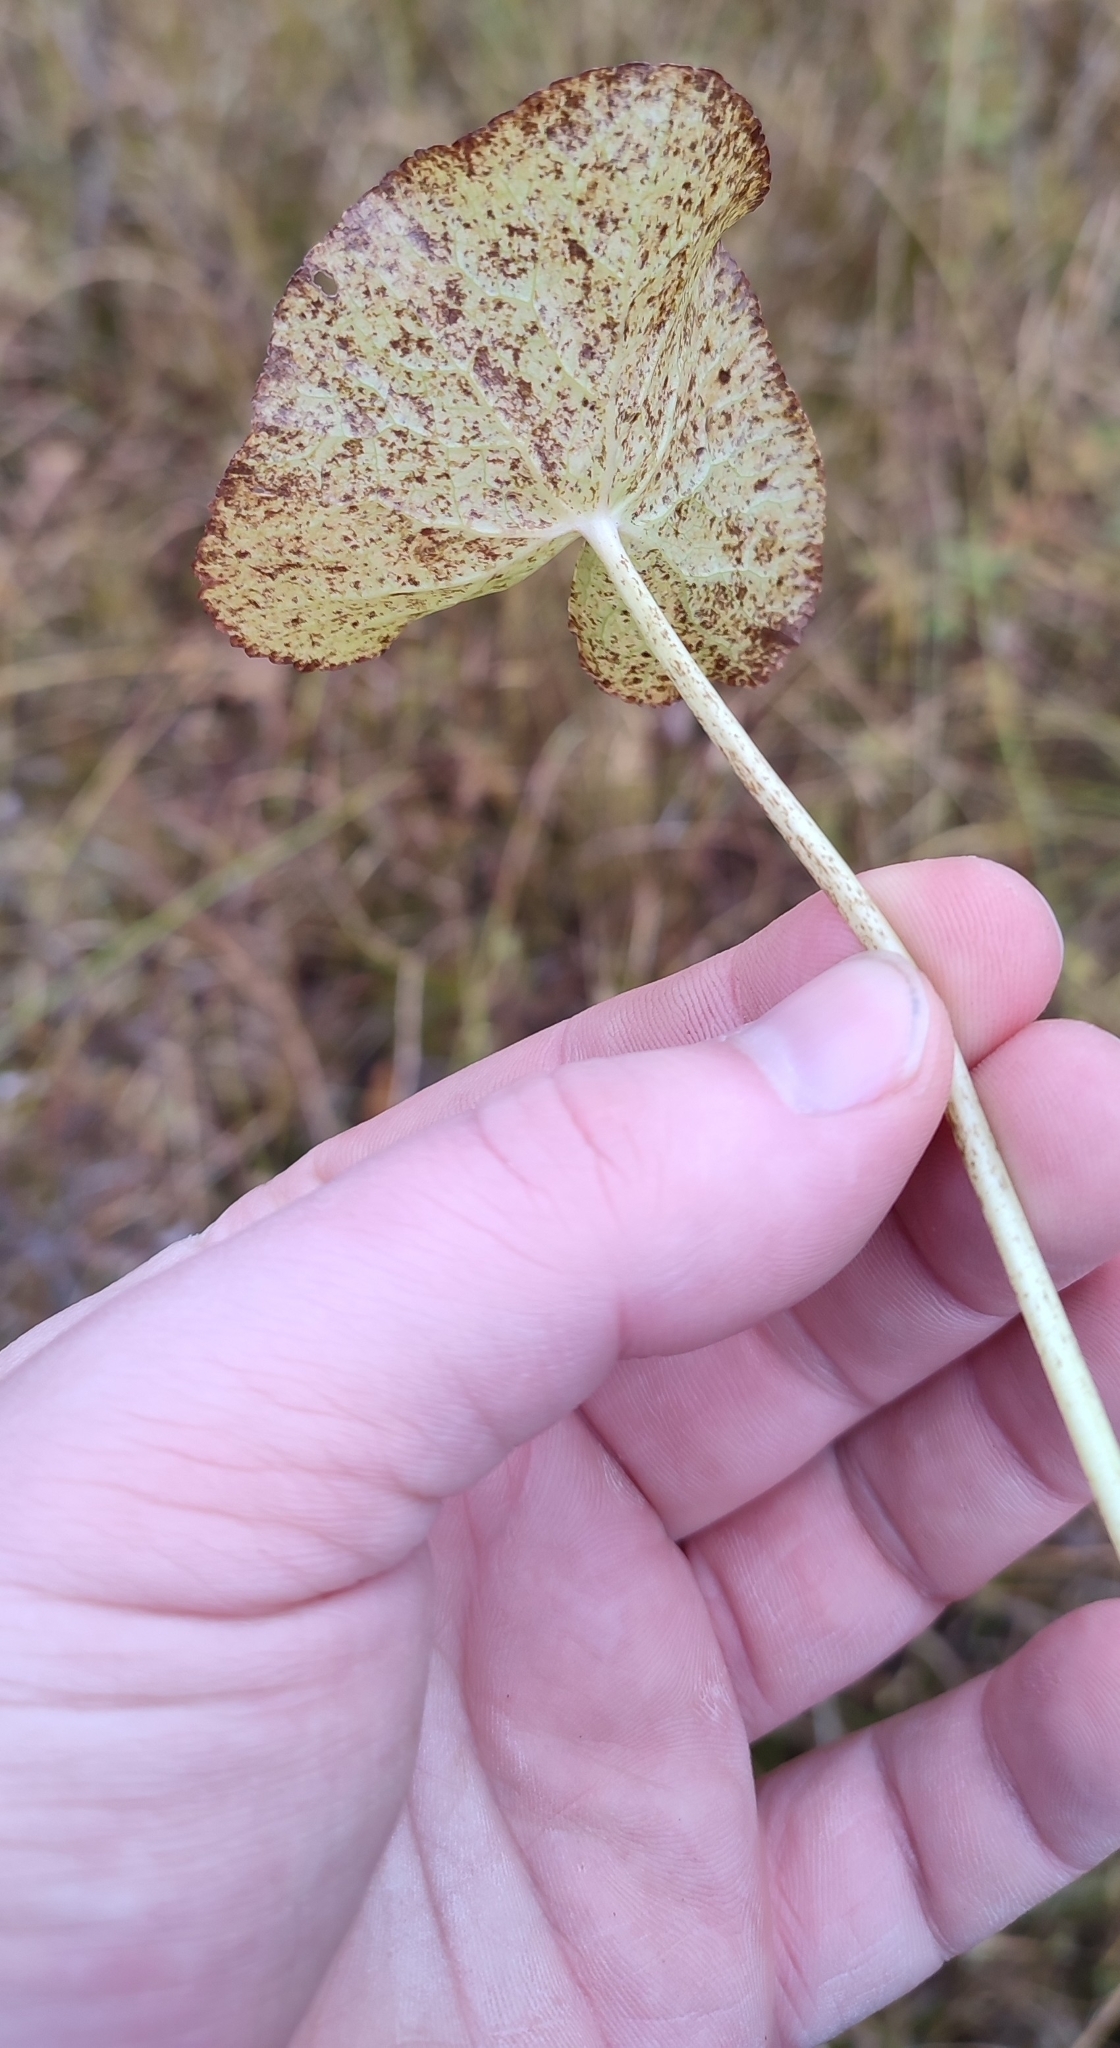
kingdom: Plantae
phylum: Tracheophyta
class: Magnoliopsida
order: Ranunculales
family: Ranunculaceae
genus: Caltha
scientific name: Caltha palustris
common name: Marsh marigold
